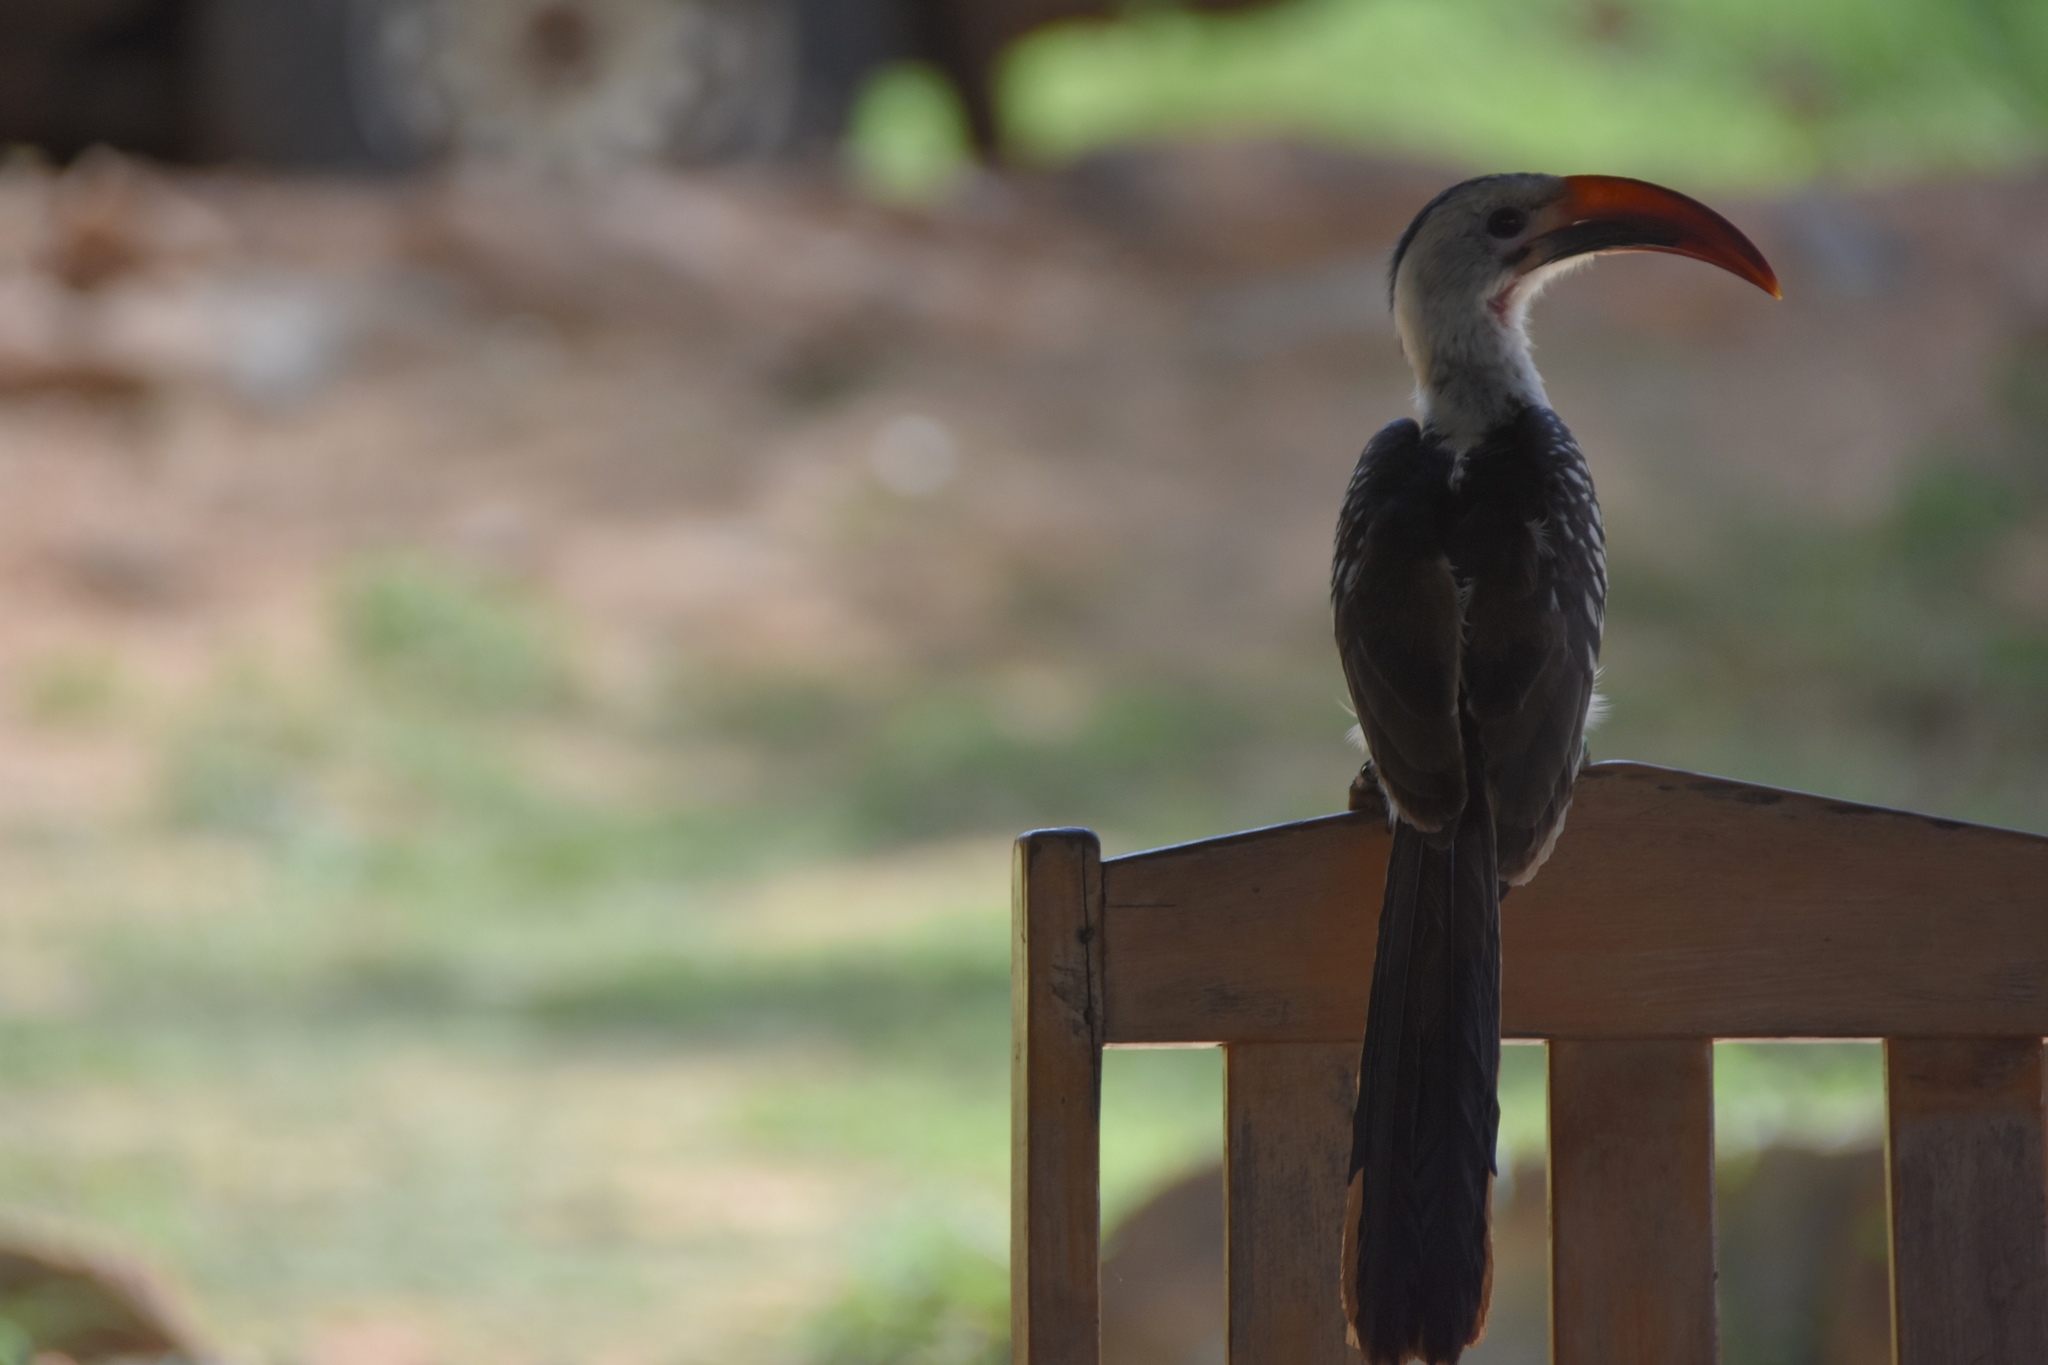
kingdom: Animalia
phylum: Chordata
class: Aves
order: Bucerotiformes
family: Bucerotidae
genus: Tockus
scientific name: Tockus erythrorhynchus
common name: Northern red-billed hornbill
